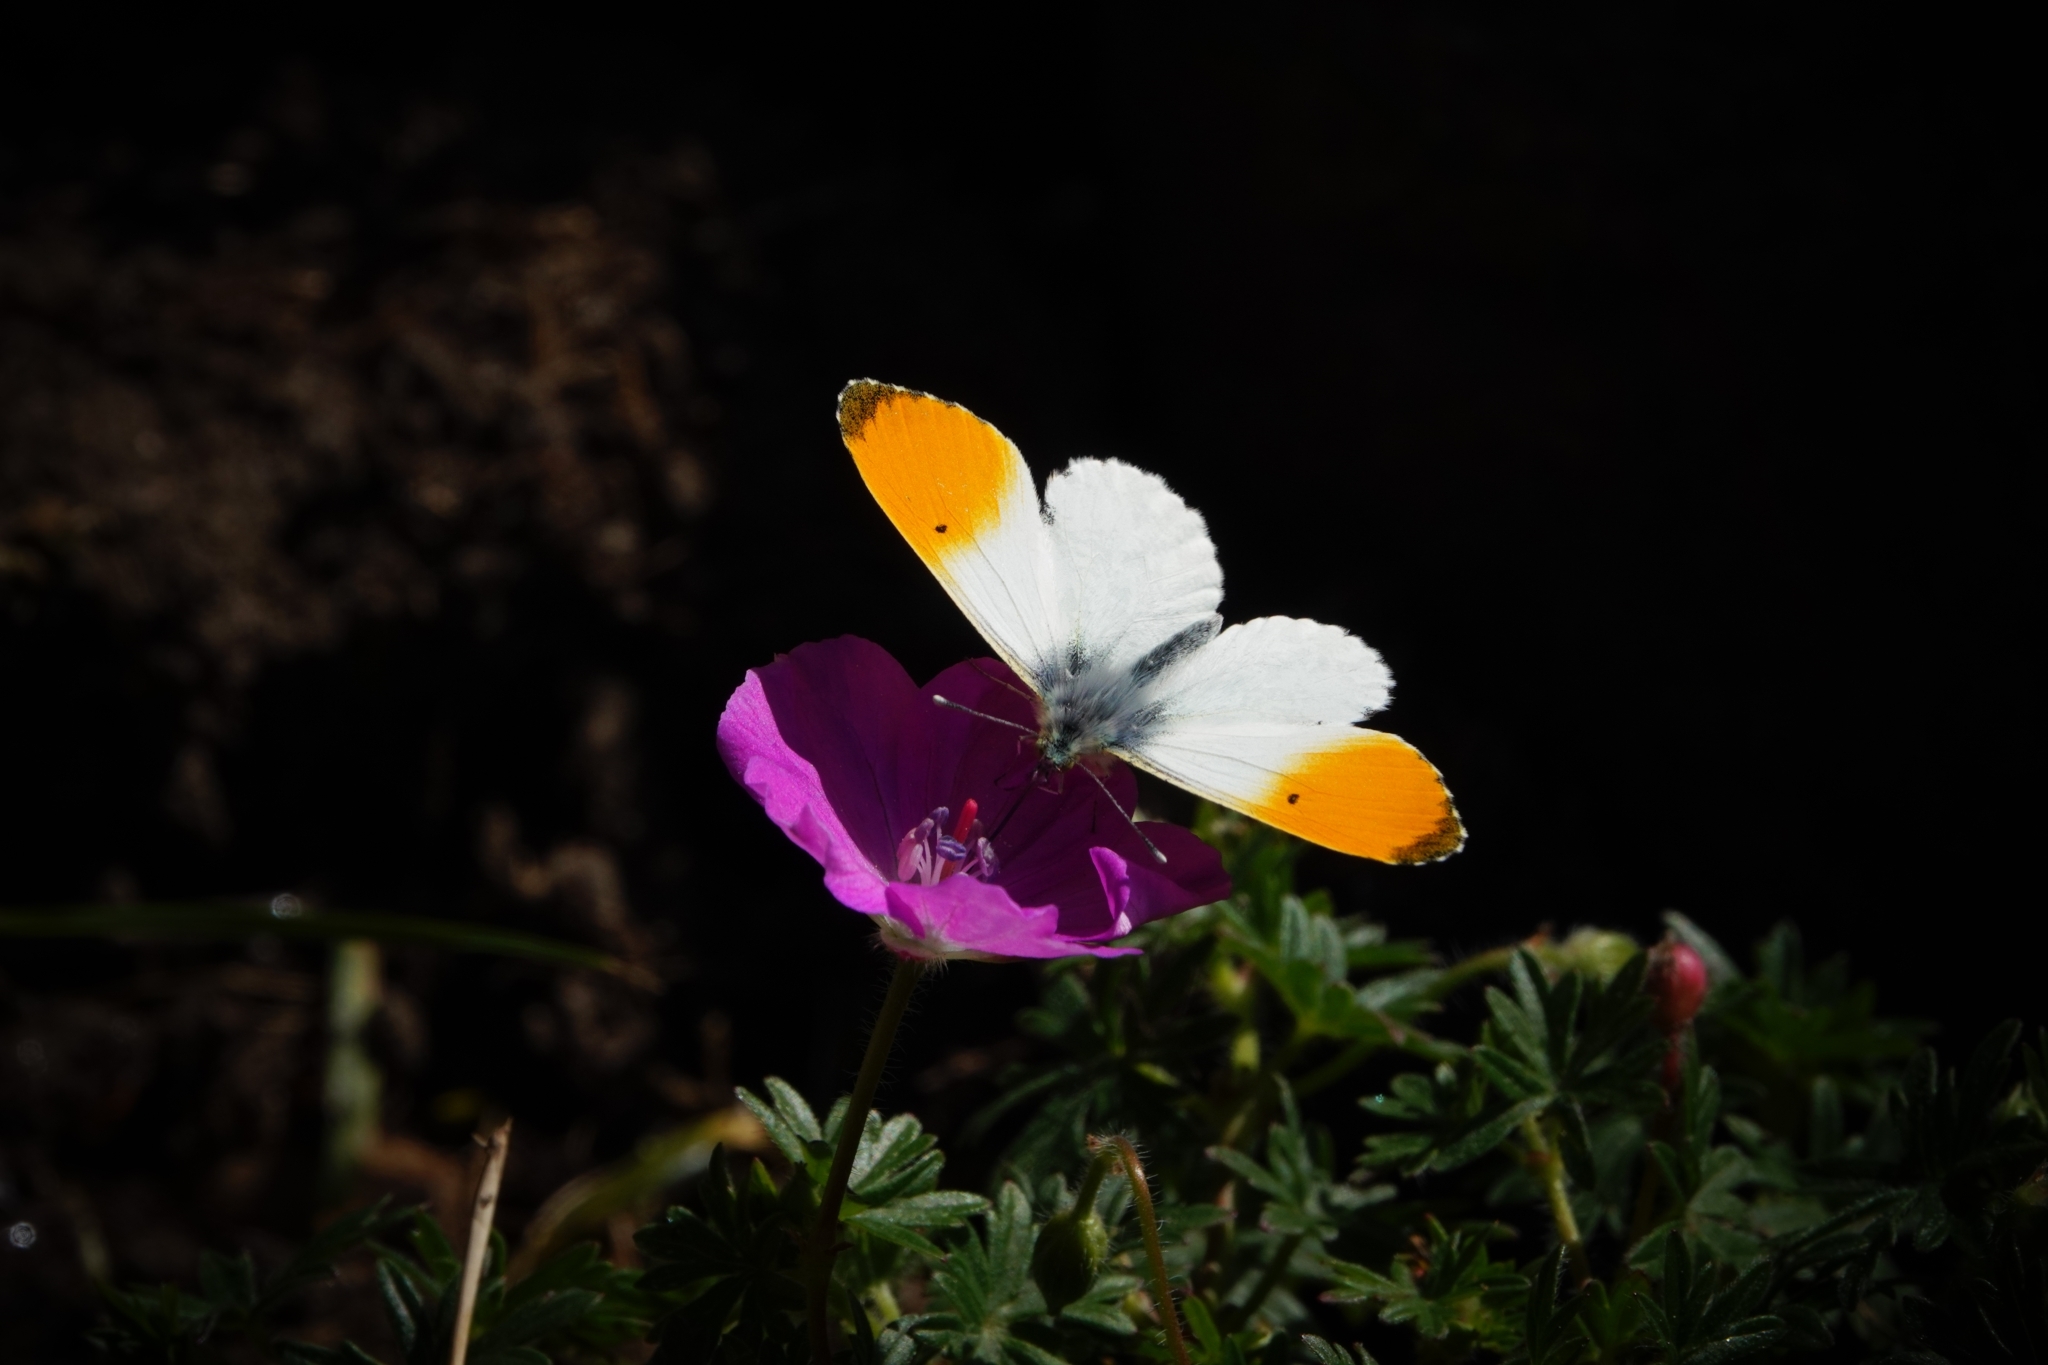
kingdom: Animalia
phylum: Arthropoda
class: Insecta
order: Lepidoptera
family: Pieridae
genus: Anthocharis
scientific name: Anthocharis cardamines
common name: Orange-tip
